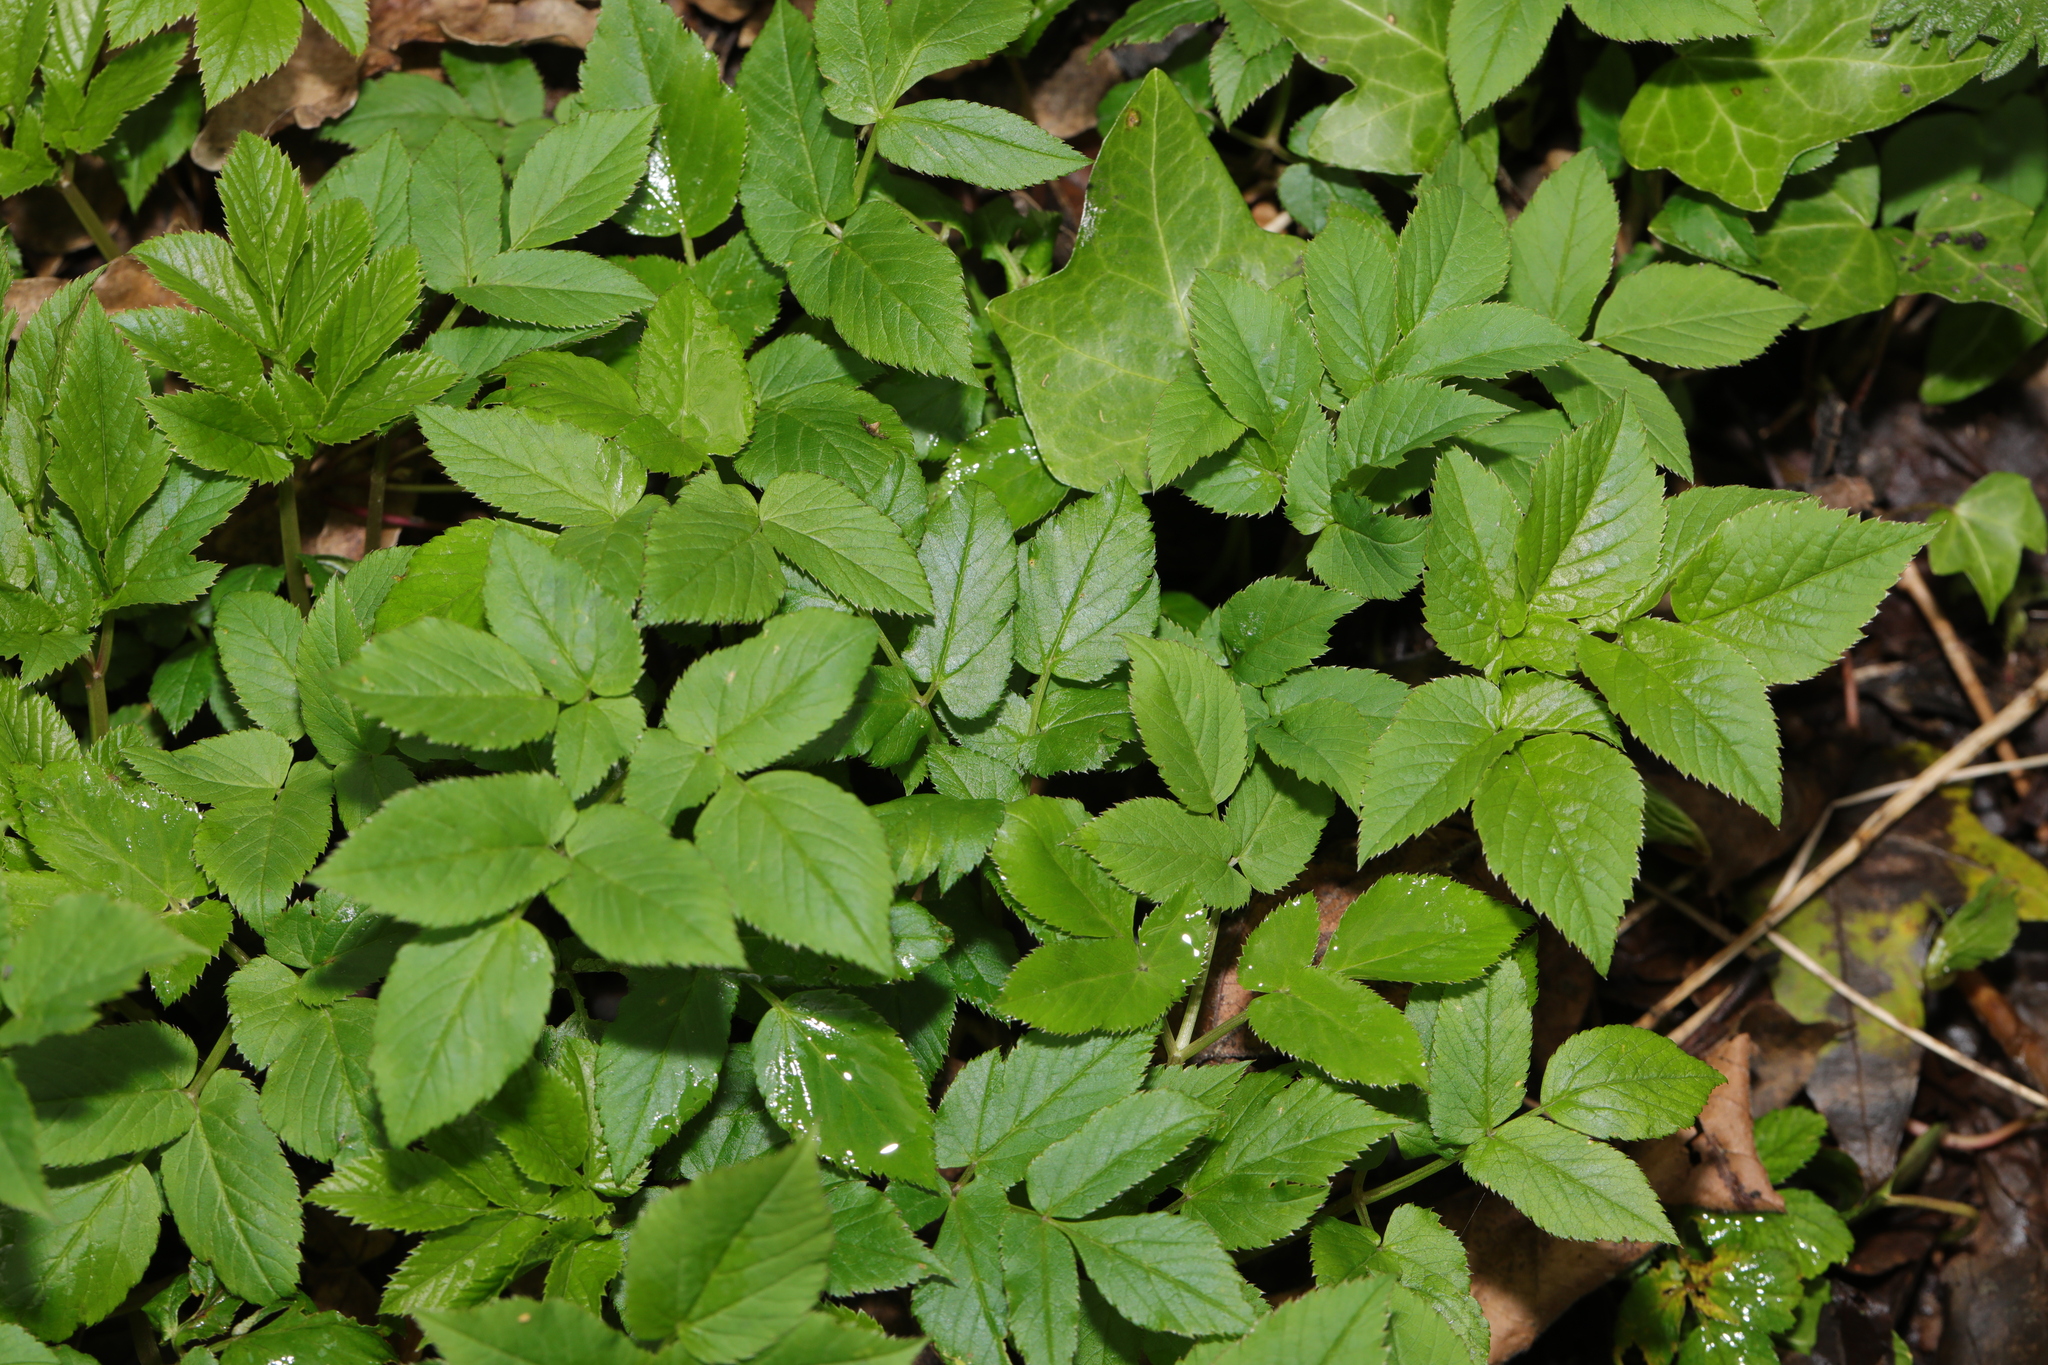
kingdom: Plantae
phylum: Tracheophyta
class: Magnoliopsida
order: Apiales
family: Apiaceae
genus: Aegopodium
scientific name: Aegopodium podagraria
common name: Ground-elder
